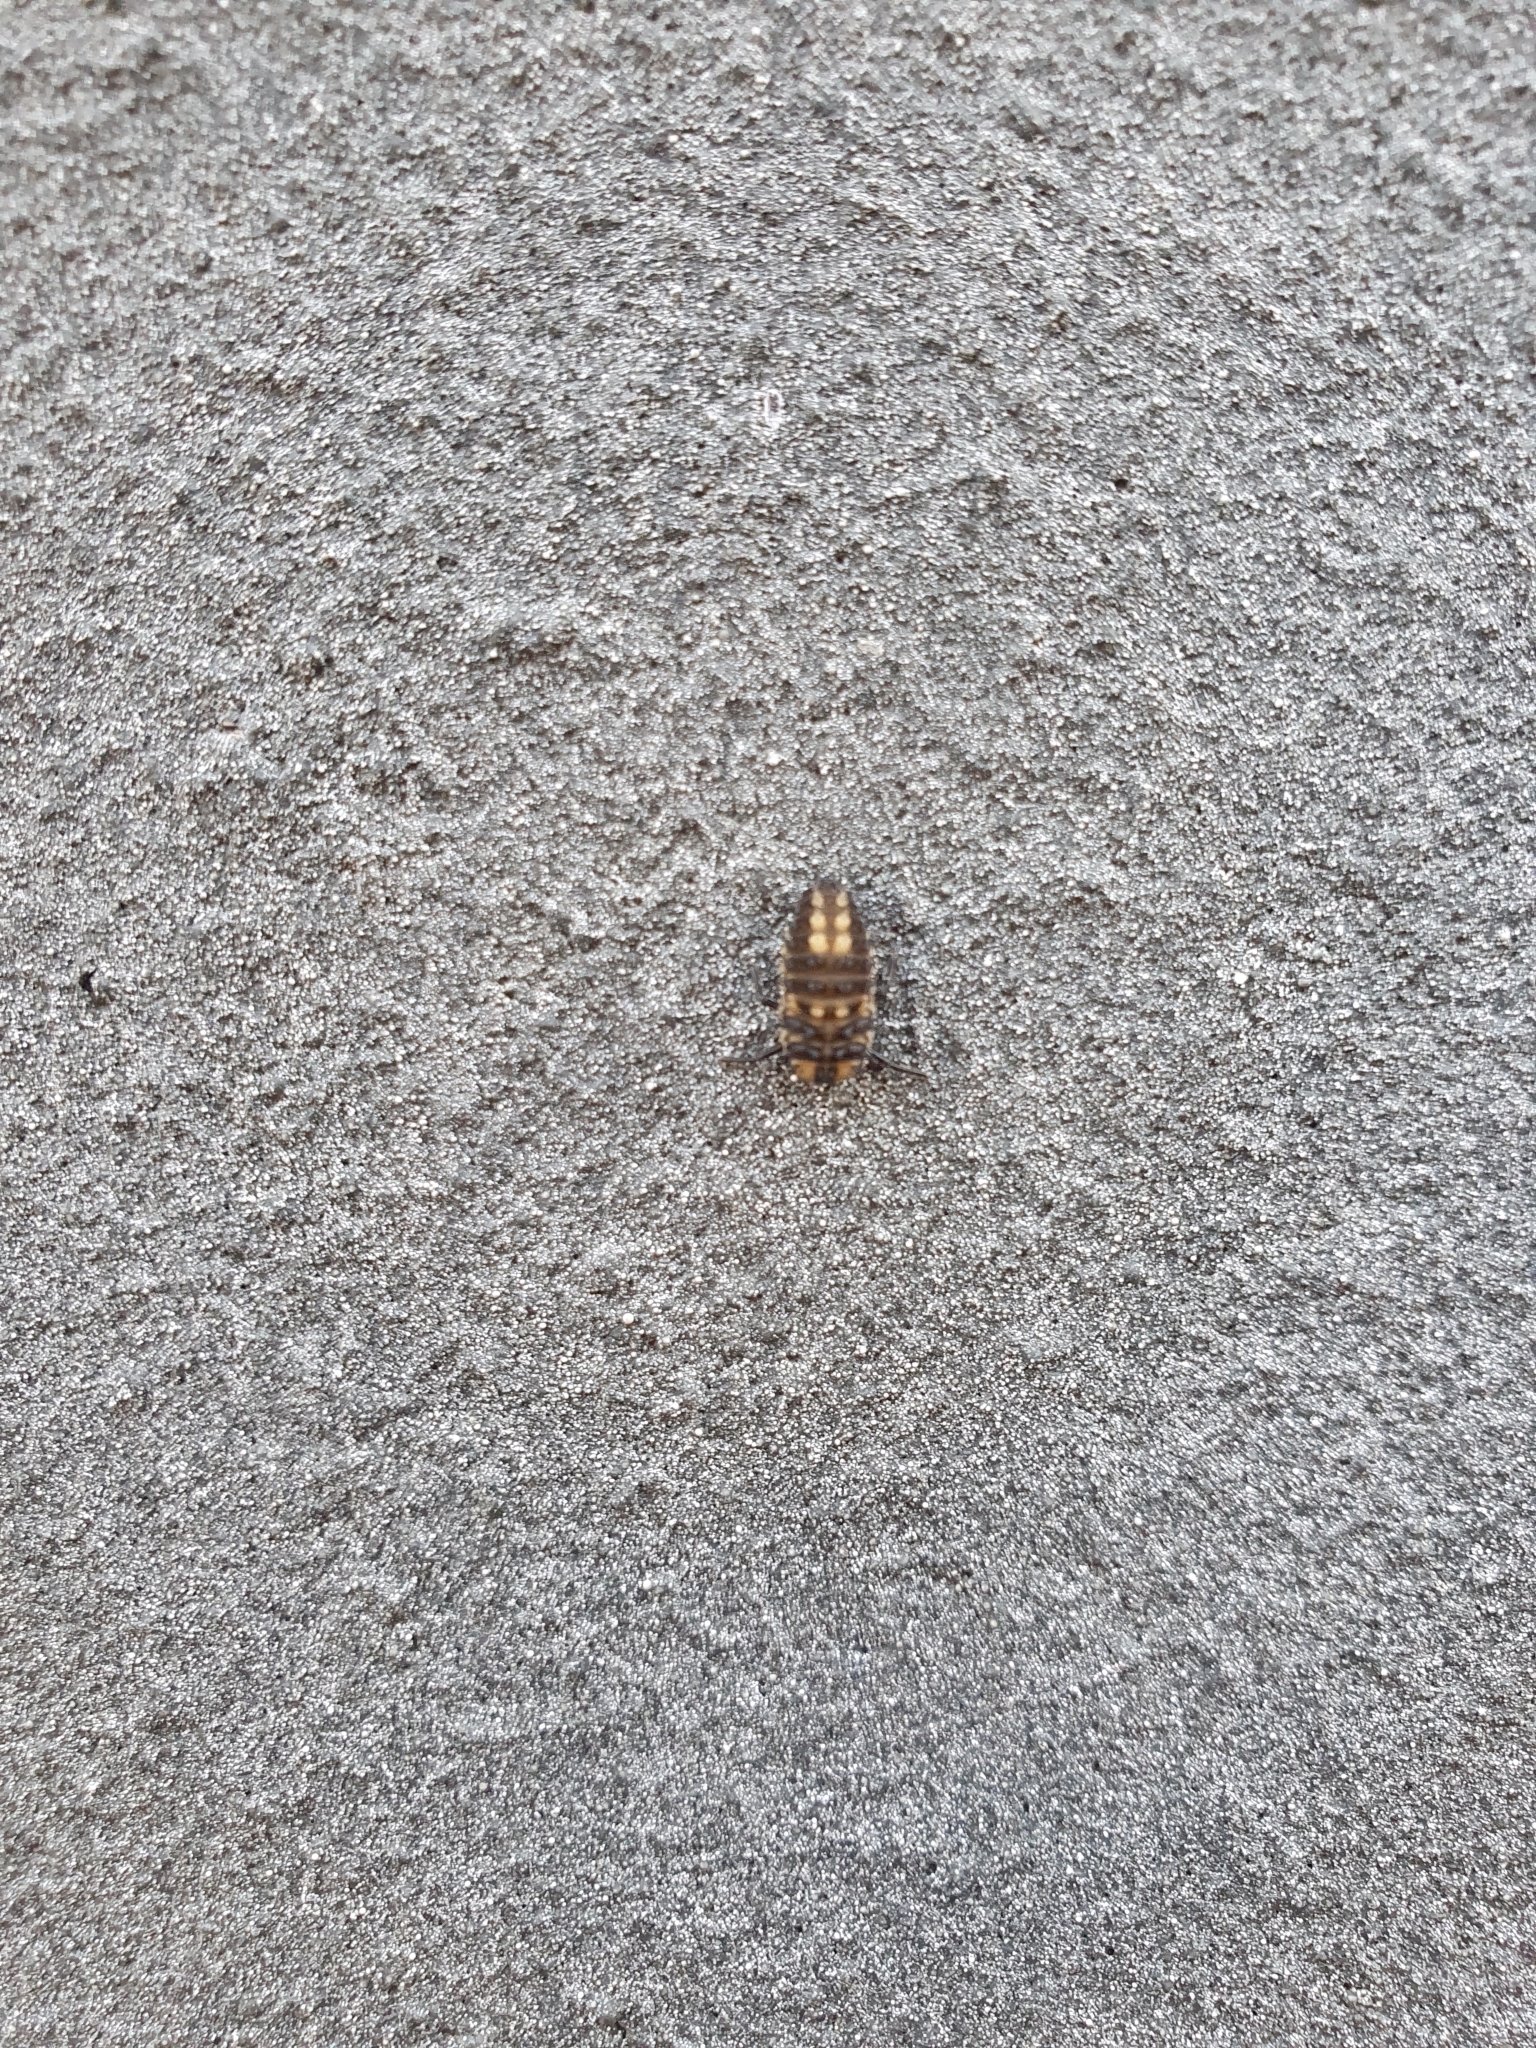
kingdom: Animalia
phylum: Arthropoda
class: Insecta
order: Coleoptera
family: Coccinellidae
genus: Harmonia
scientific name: Harmonia
